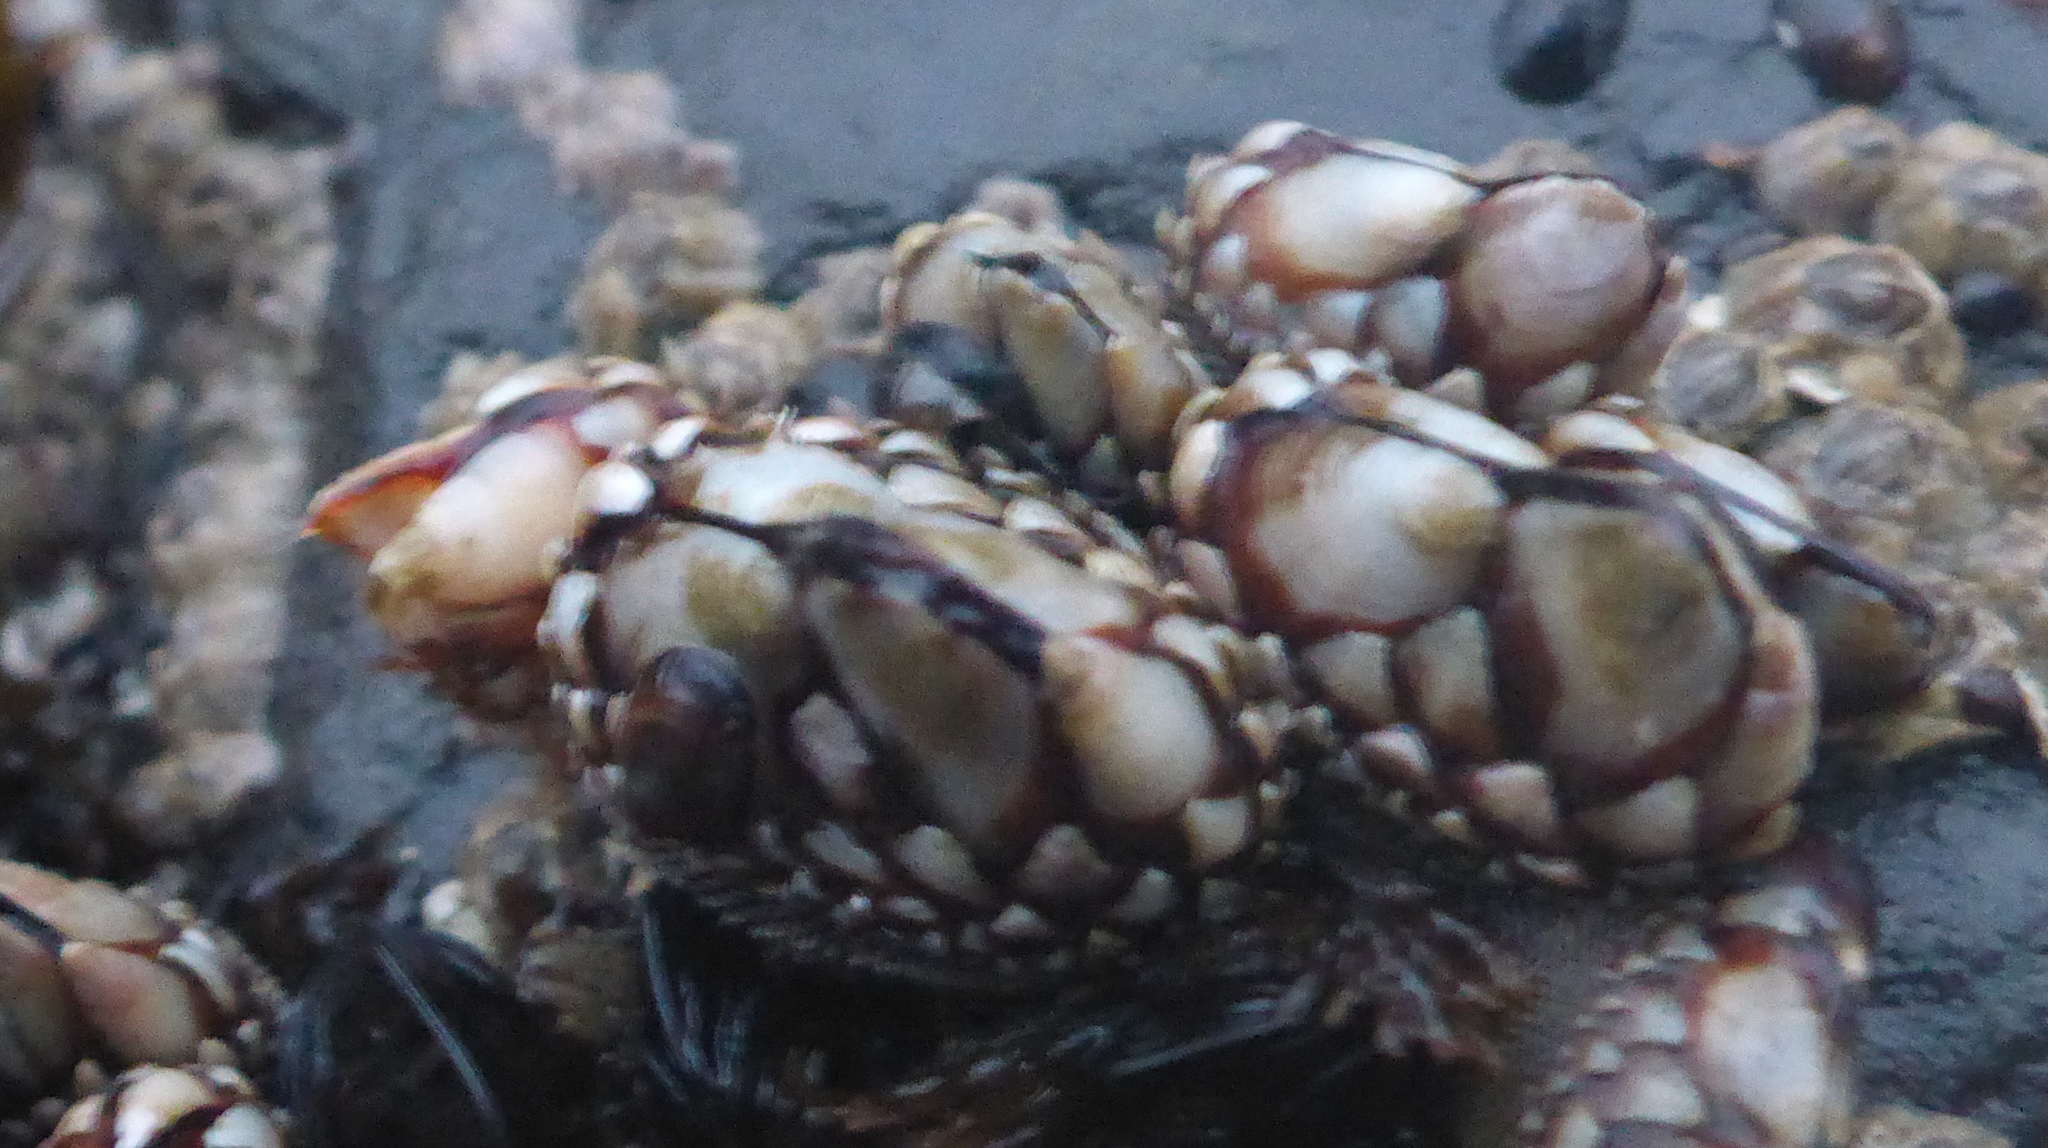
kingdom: Animalia
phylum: Arthropoda
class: Maxillopoda
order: Pedunculata
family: Pollicipedidae
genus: Pollicipes
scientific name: Pollicipes polymerus
